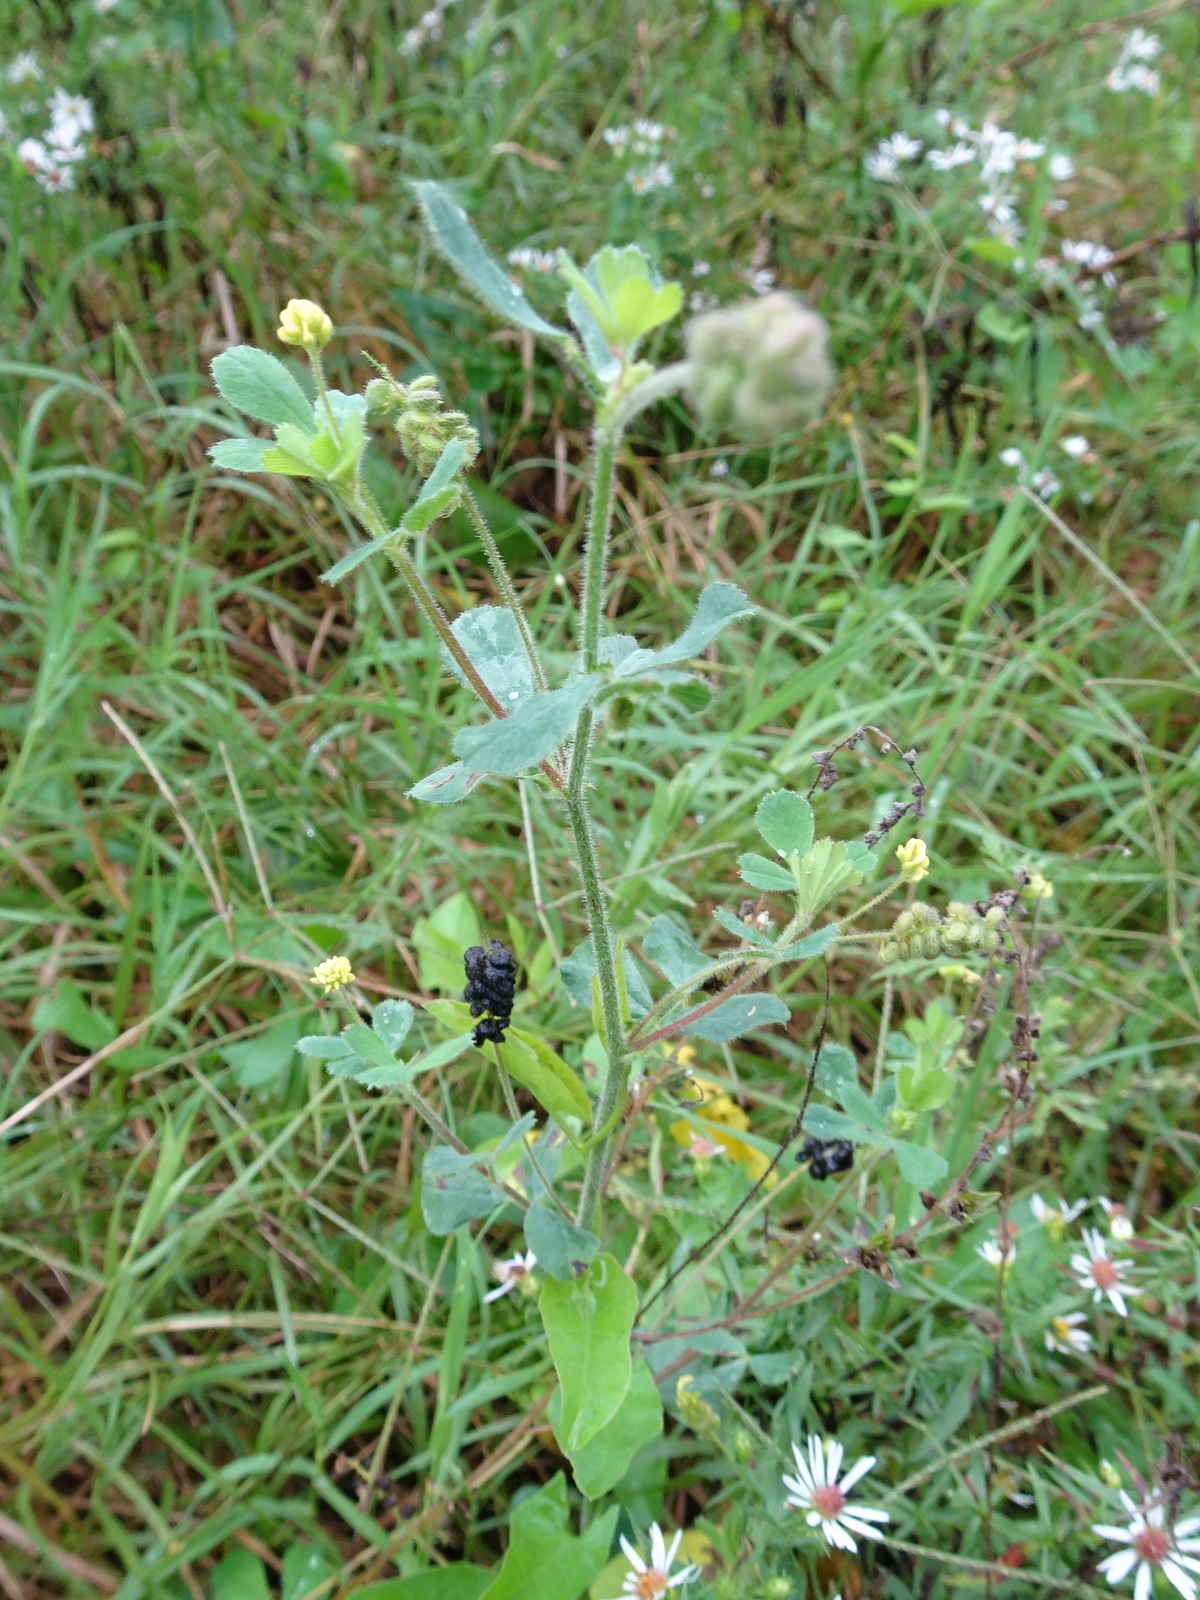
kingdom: Plantae
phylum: Tracheophyta
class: Magnoliopsida
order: Fabales
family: Fabaceae
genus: Medicago
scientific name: Medicago lupulina
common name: Black medick
